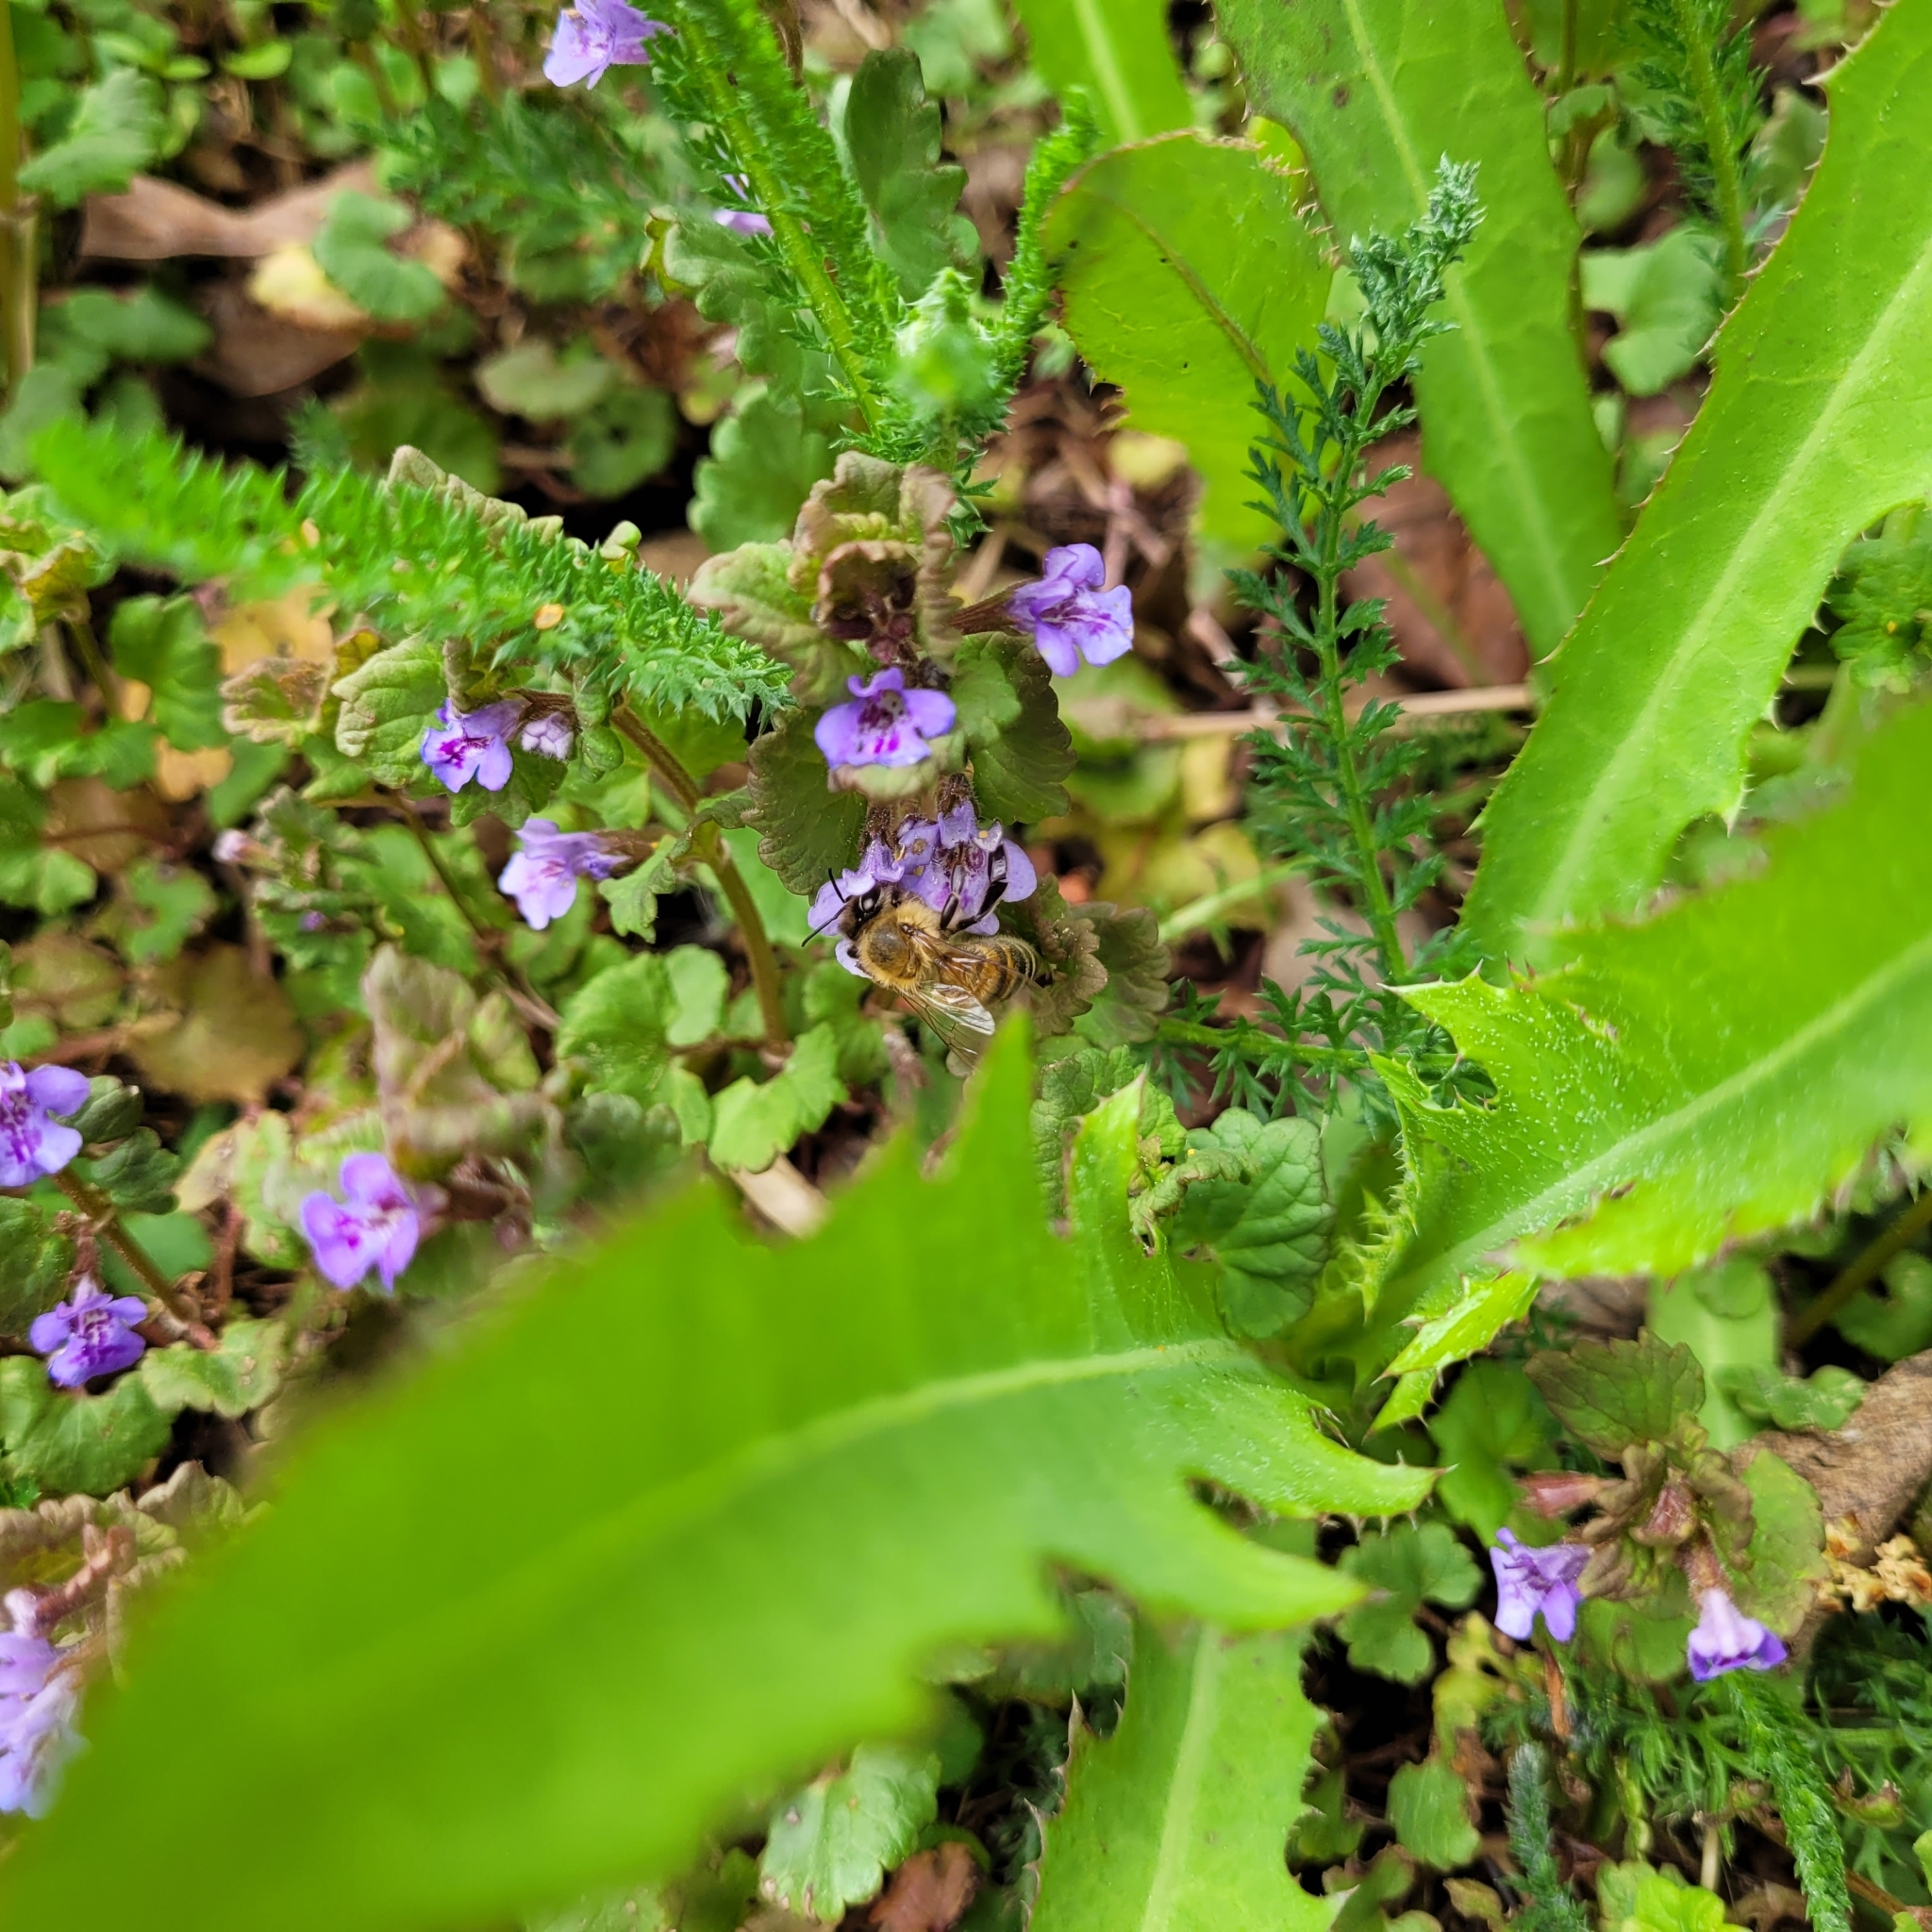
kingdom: Animalia
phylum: Arthropoda
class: Insecta
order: Hymenoptera
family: Apidae
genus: Apis
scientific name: Apis mellifera
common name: Honey bee
